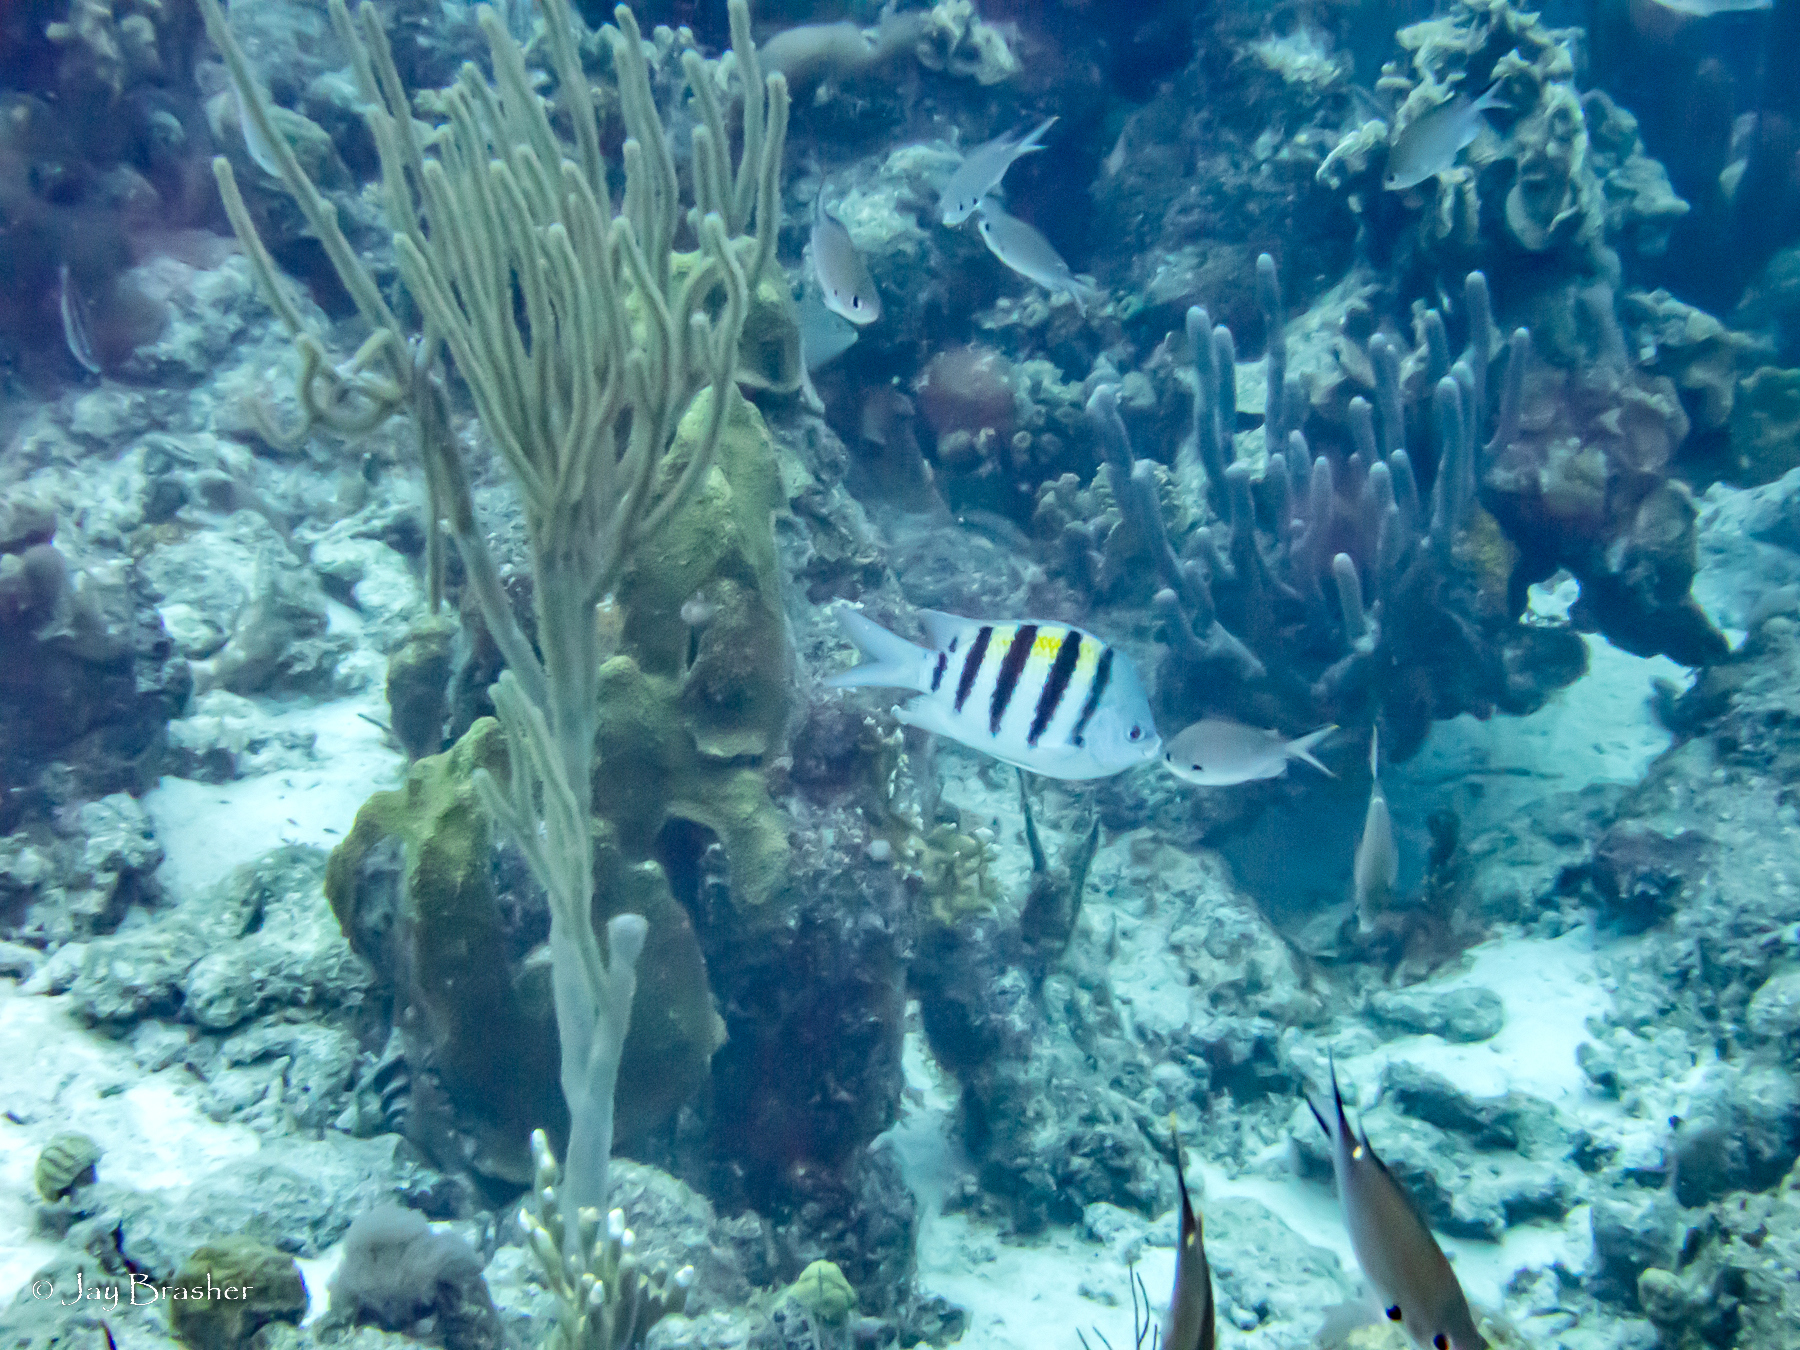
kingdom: Animalia
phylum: Chordata
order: Perciformes
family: Pomacentridae
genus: Abudefduf
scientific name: Abudefduf saxatilis
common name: Sergeant major
